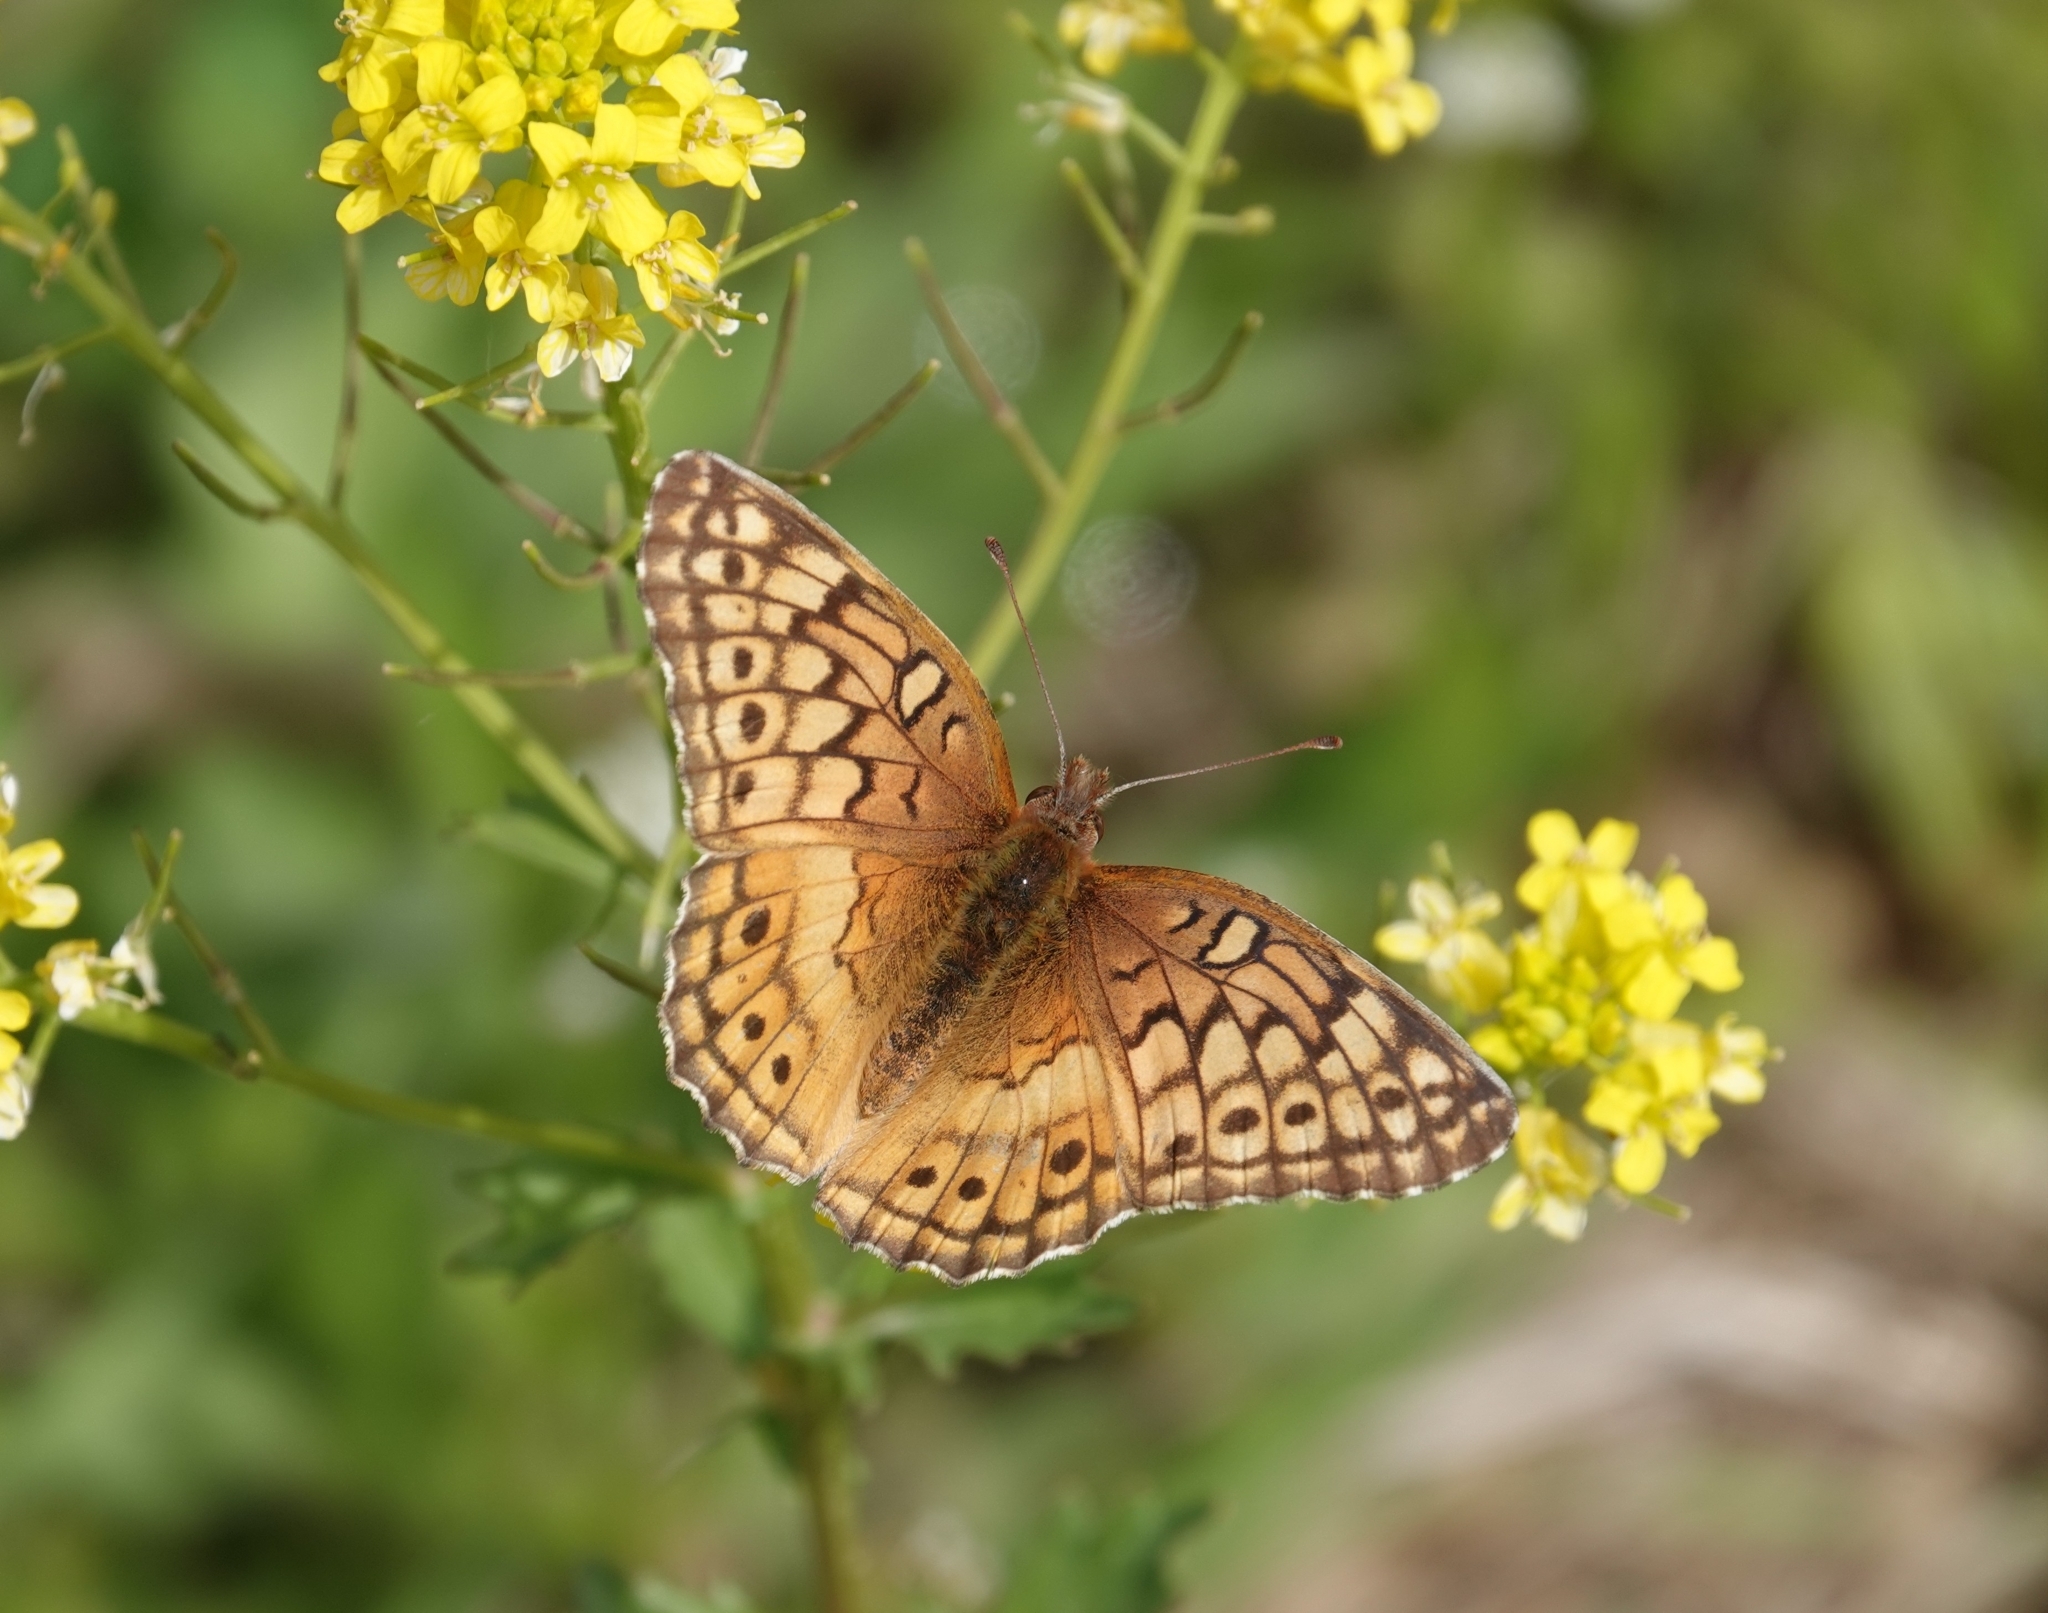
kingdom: Animalia
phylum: Arthropoda
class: Insecta
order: Lepidoptera
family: Nymphalidae
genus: Euptoieta
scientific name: Euptoieta claudia
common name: Variegated fritillary
